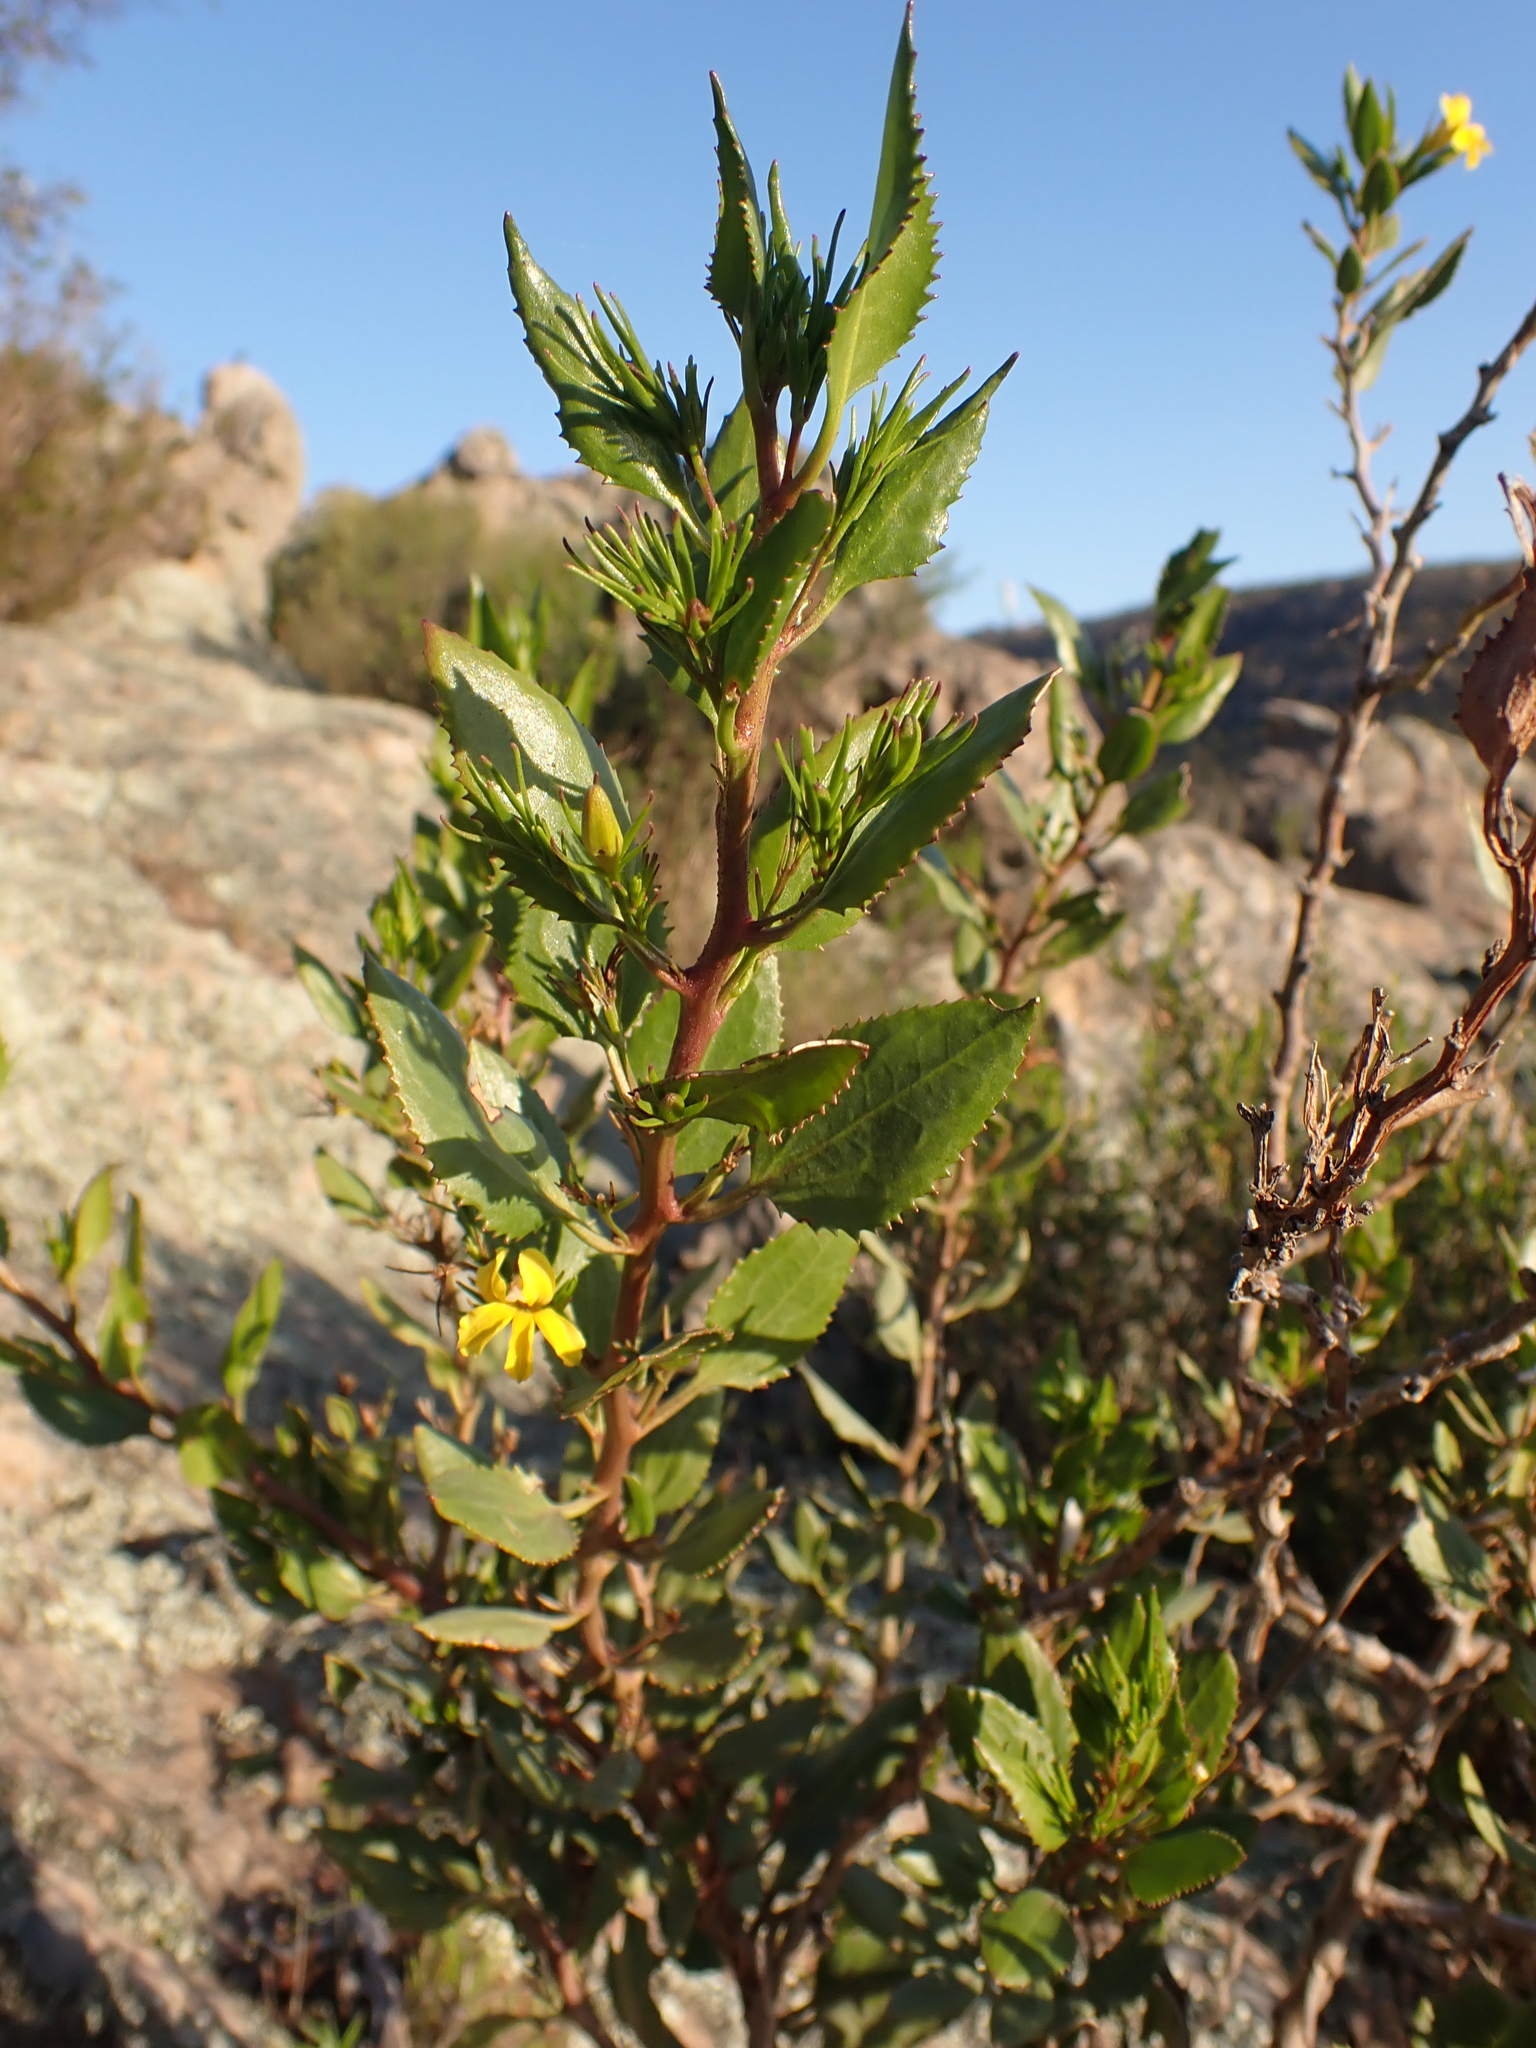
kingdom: Plantae
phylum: Tracheophyta
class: Magnoliopsida
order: Asterales
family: Goodeniaceae
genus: Goodenia
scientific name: Goodenia ovata
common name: Hop goodenia
